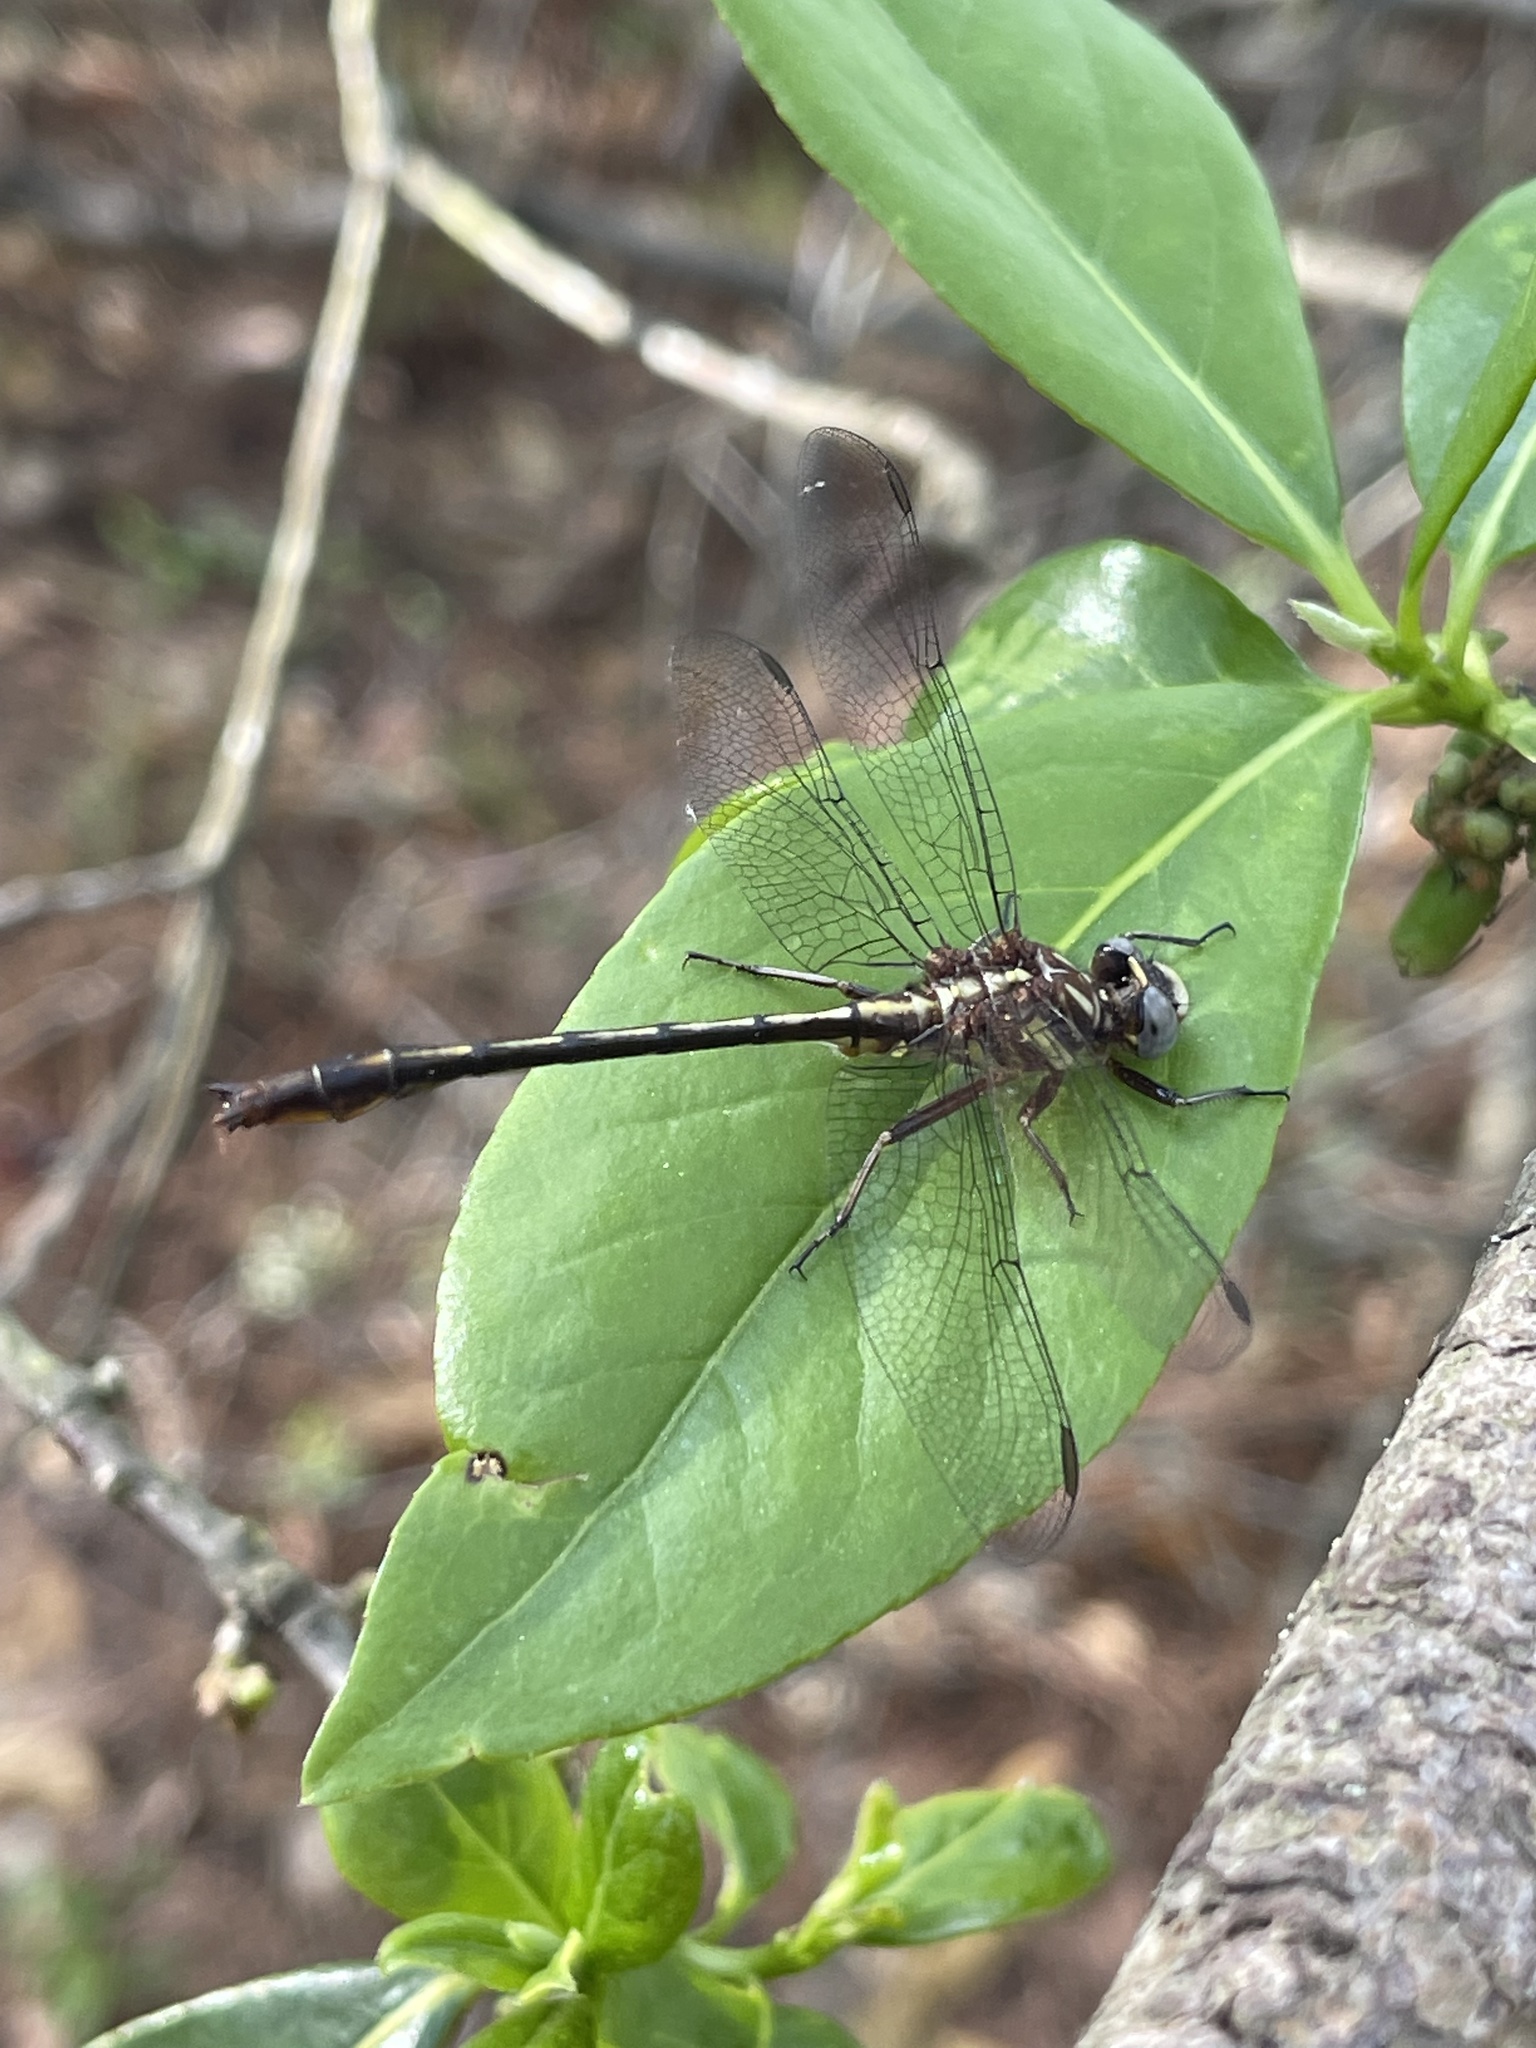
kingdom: Animalia
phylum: Arthropoda
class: Insecta
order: Odonata
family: Gomphidae
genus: Phanogomphus
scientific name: Phanogomphus exilis
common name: Lancet clubtail
